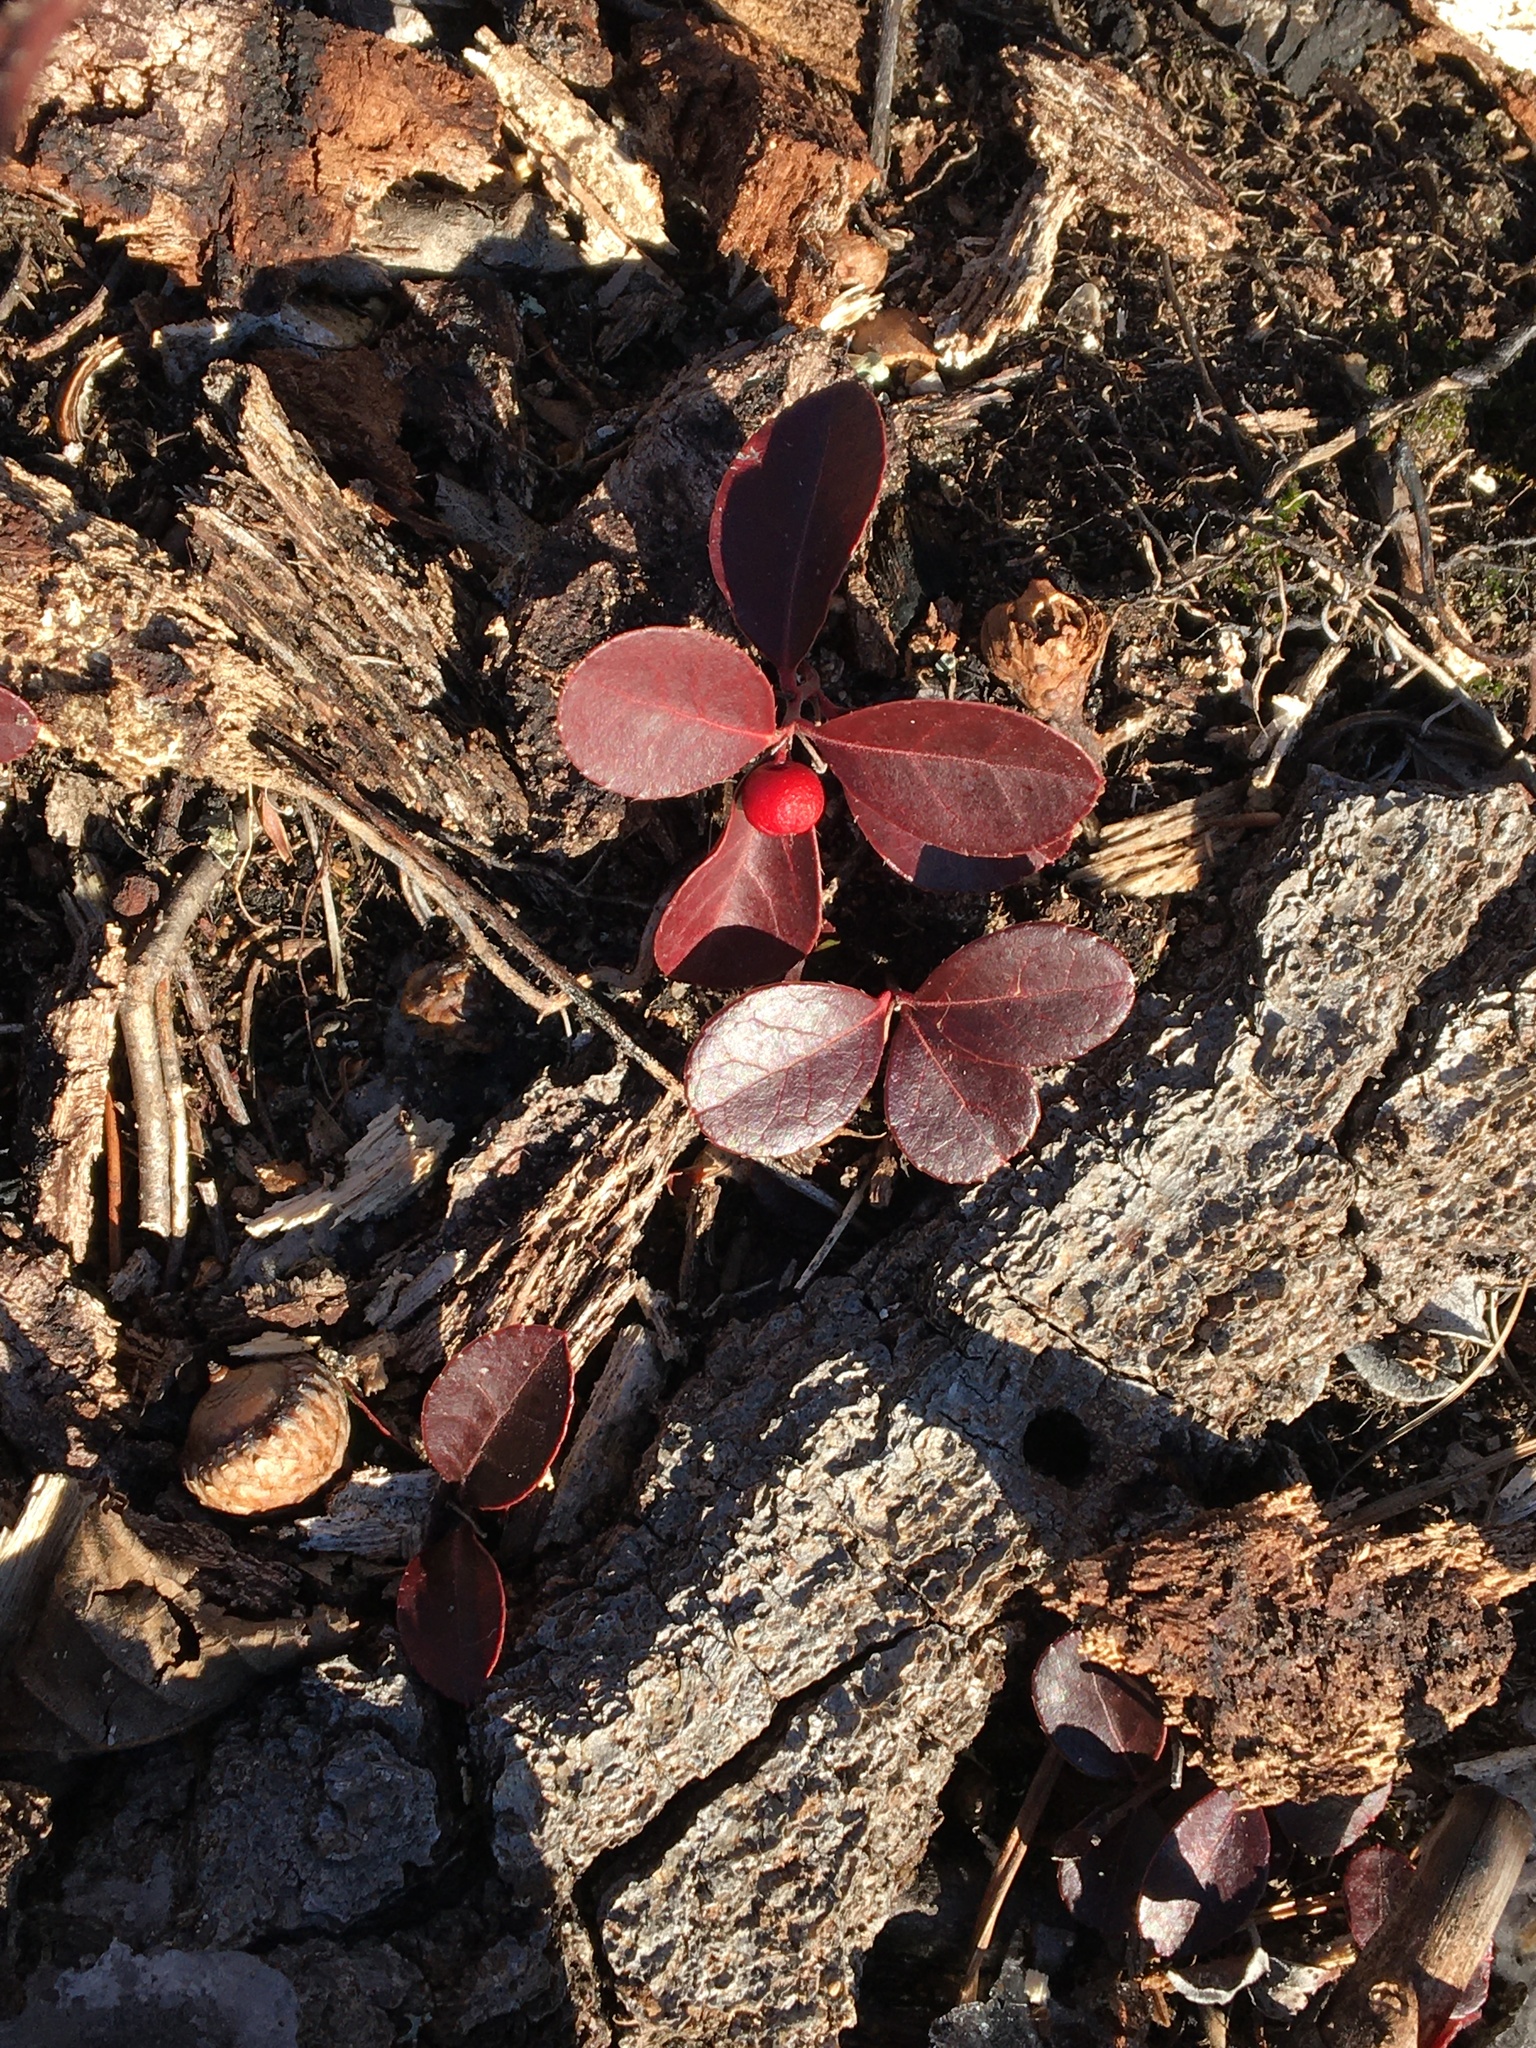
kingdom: Plantae
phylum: Tracheophyta
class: Magnoliopsida
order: Ericales
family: Ericaceae
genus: Gaultheria
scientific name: Gaultheria procumbens
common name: Checkerberry
